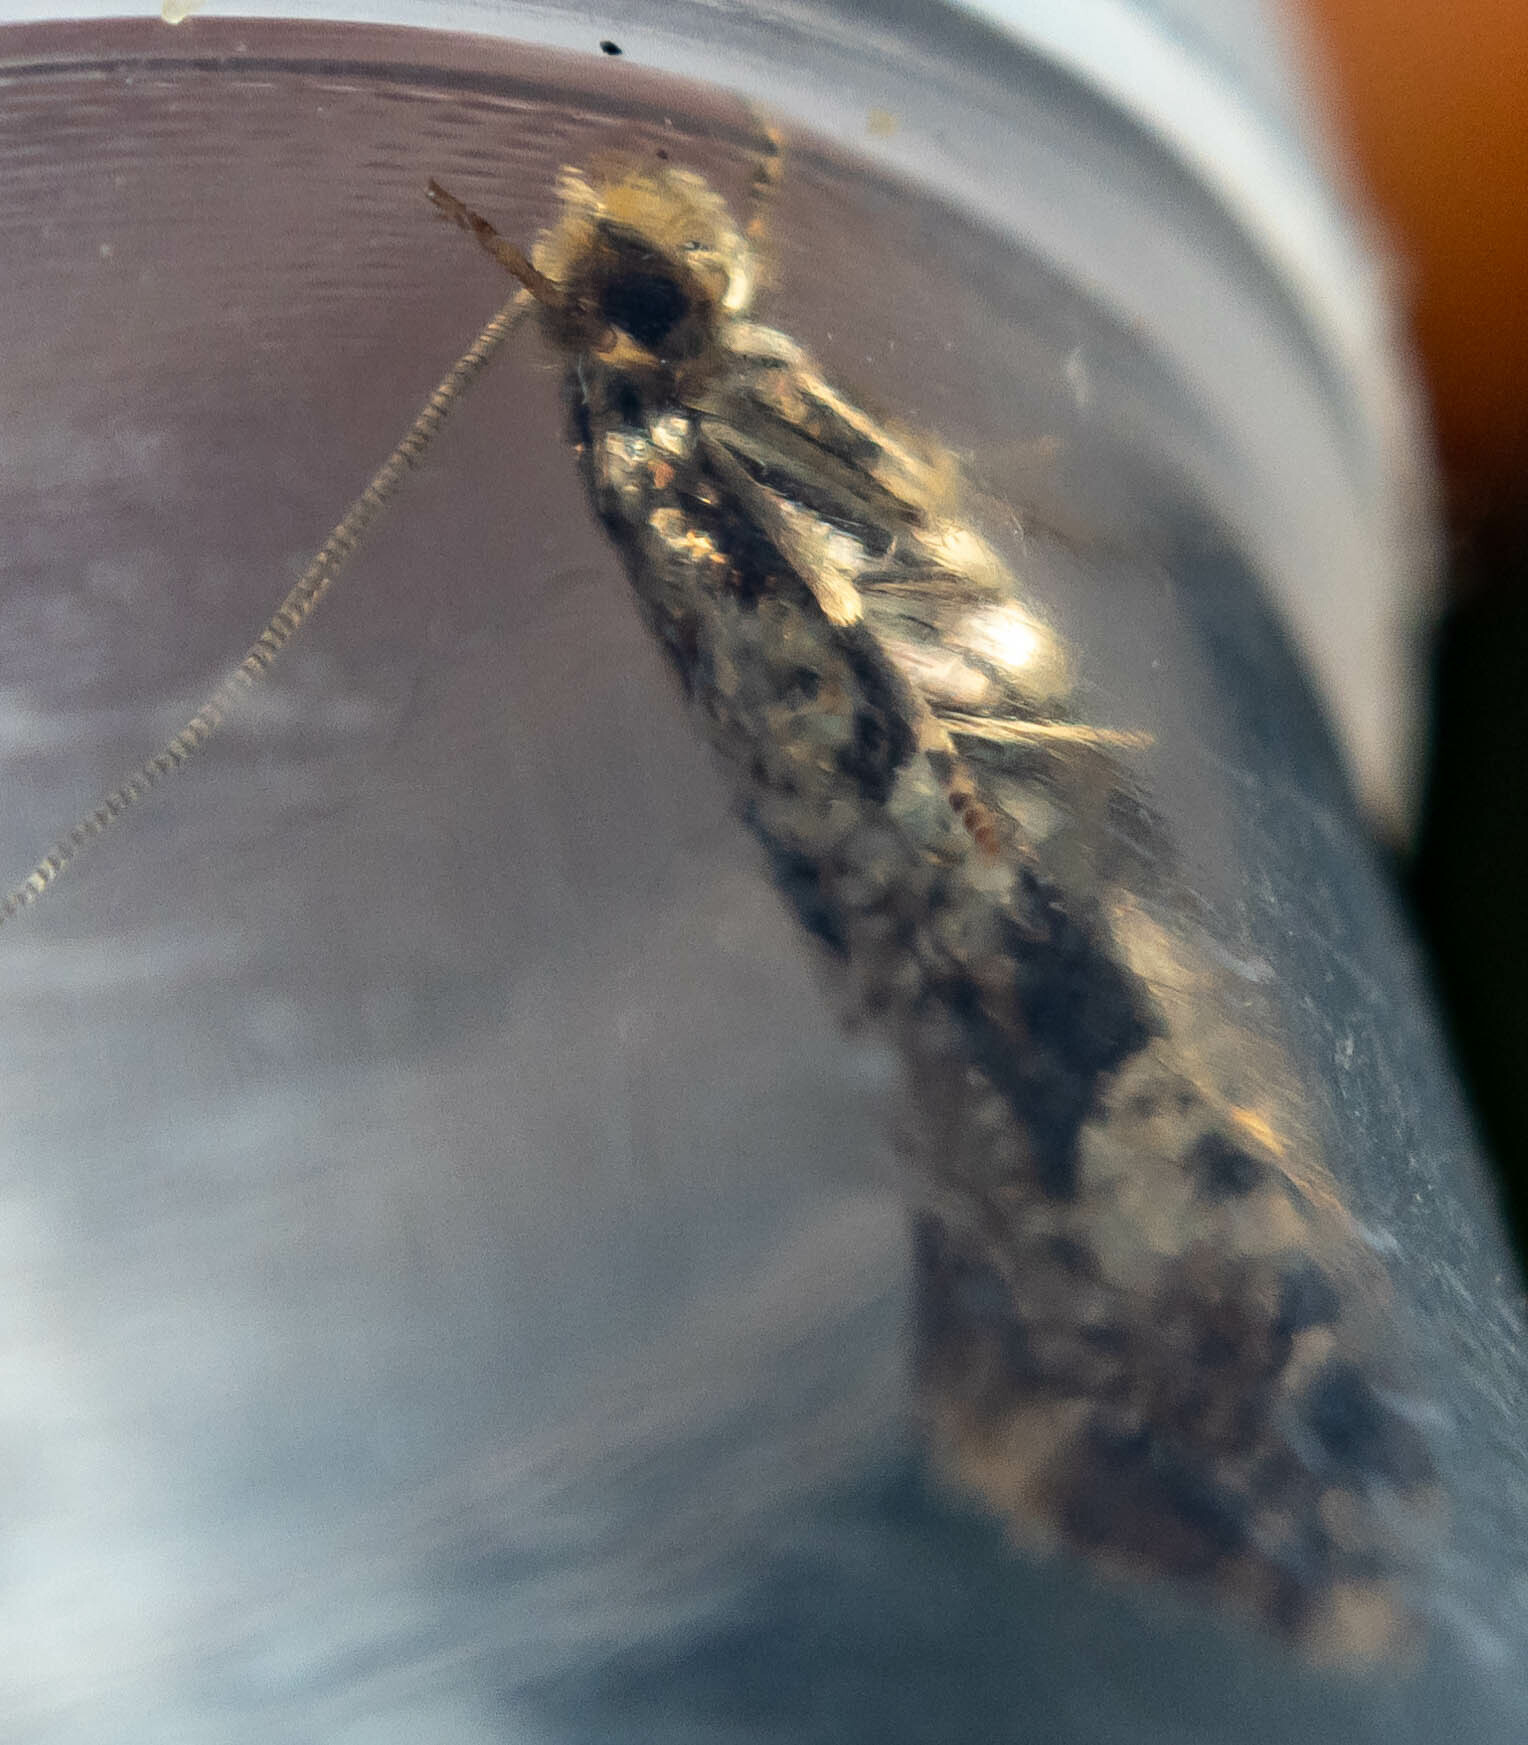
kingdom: Animalia
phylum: Arthropoda
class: Insecta
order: Lepidoptera
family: Tineidae
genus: Nemapogon
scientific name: Nemapogon cloacella
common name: Cork moth
